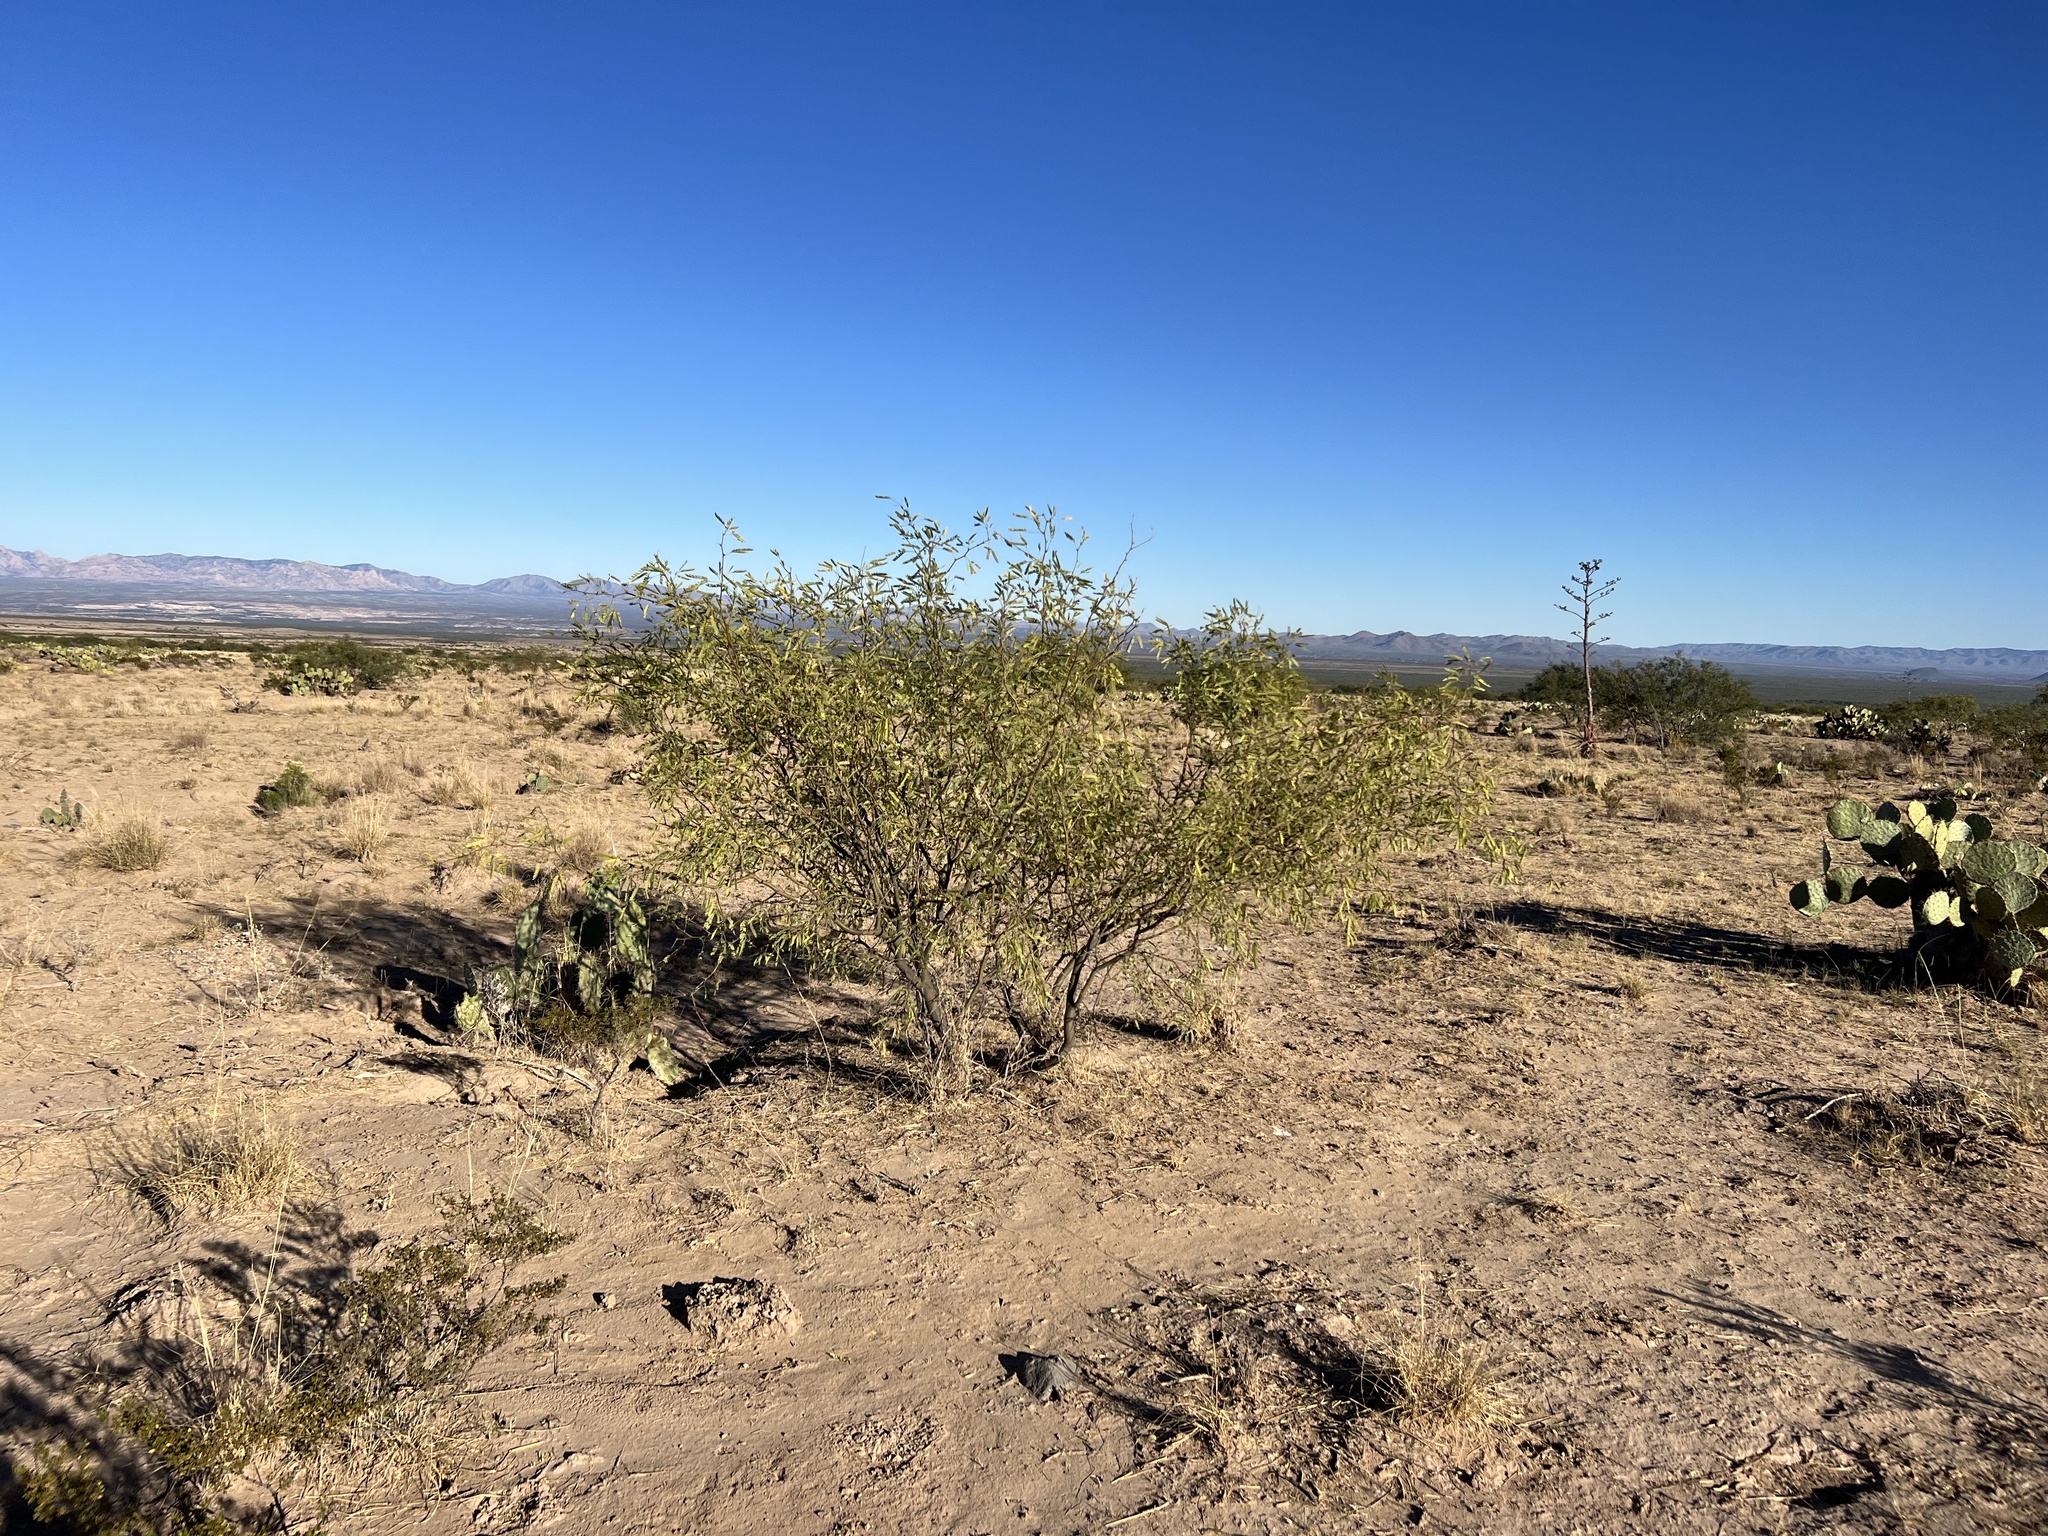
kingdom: Plantae
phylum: Tracheophyta
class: Magnoliopsida
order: Fabales
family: Fabaceae
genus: Prosopis
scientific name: Prosopis velutina
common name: Velvet mesquite
